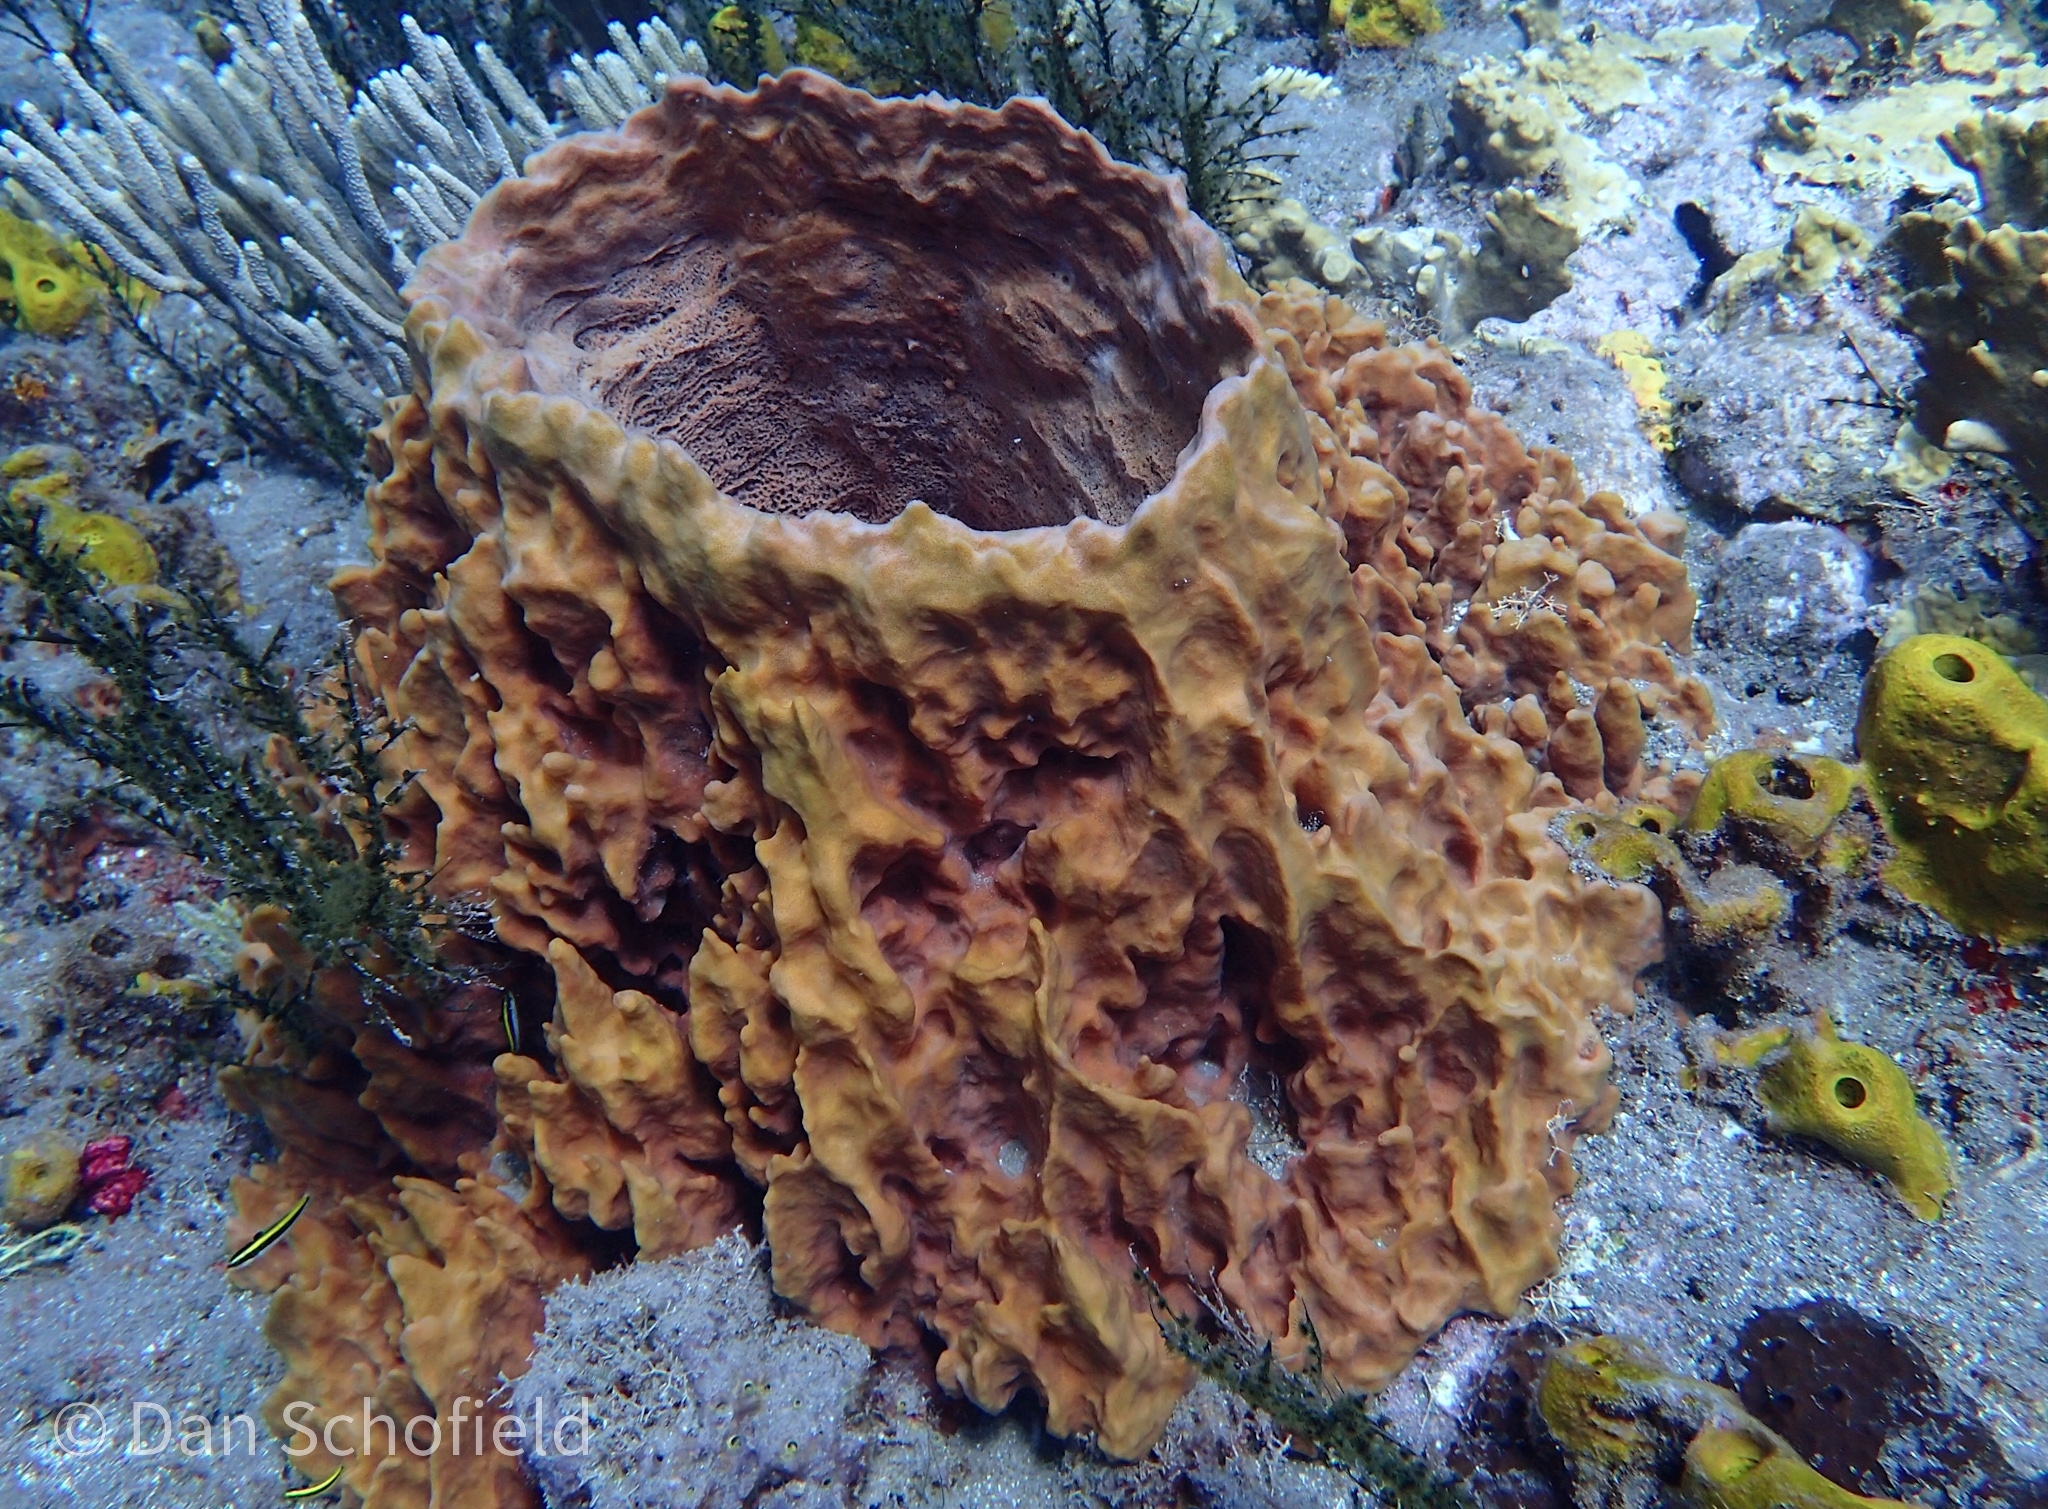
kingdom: Animalia
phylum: Porifera
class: Demospongiae
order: Haplosclerida
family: Petrosiidae
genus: Xestospongia
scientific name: Xestospongia muta
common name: Giant barrel sponge
